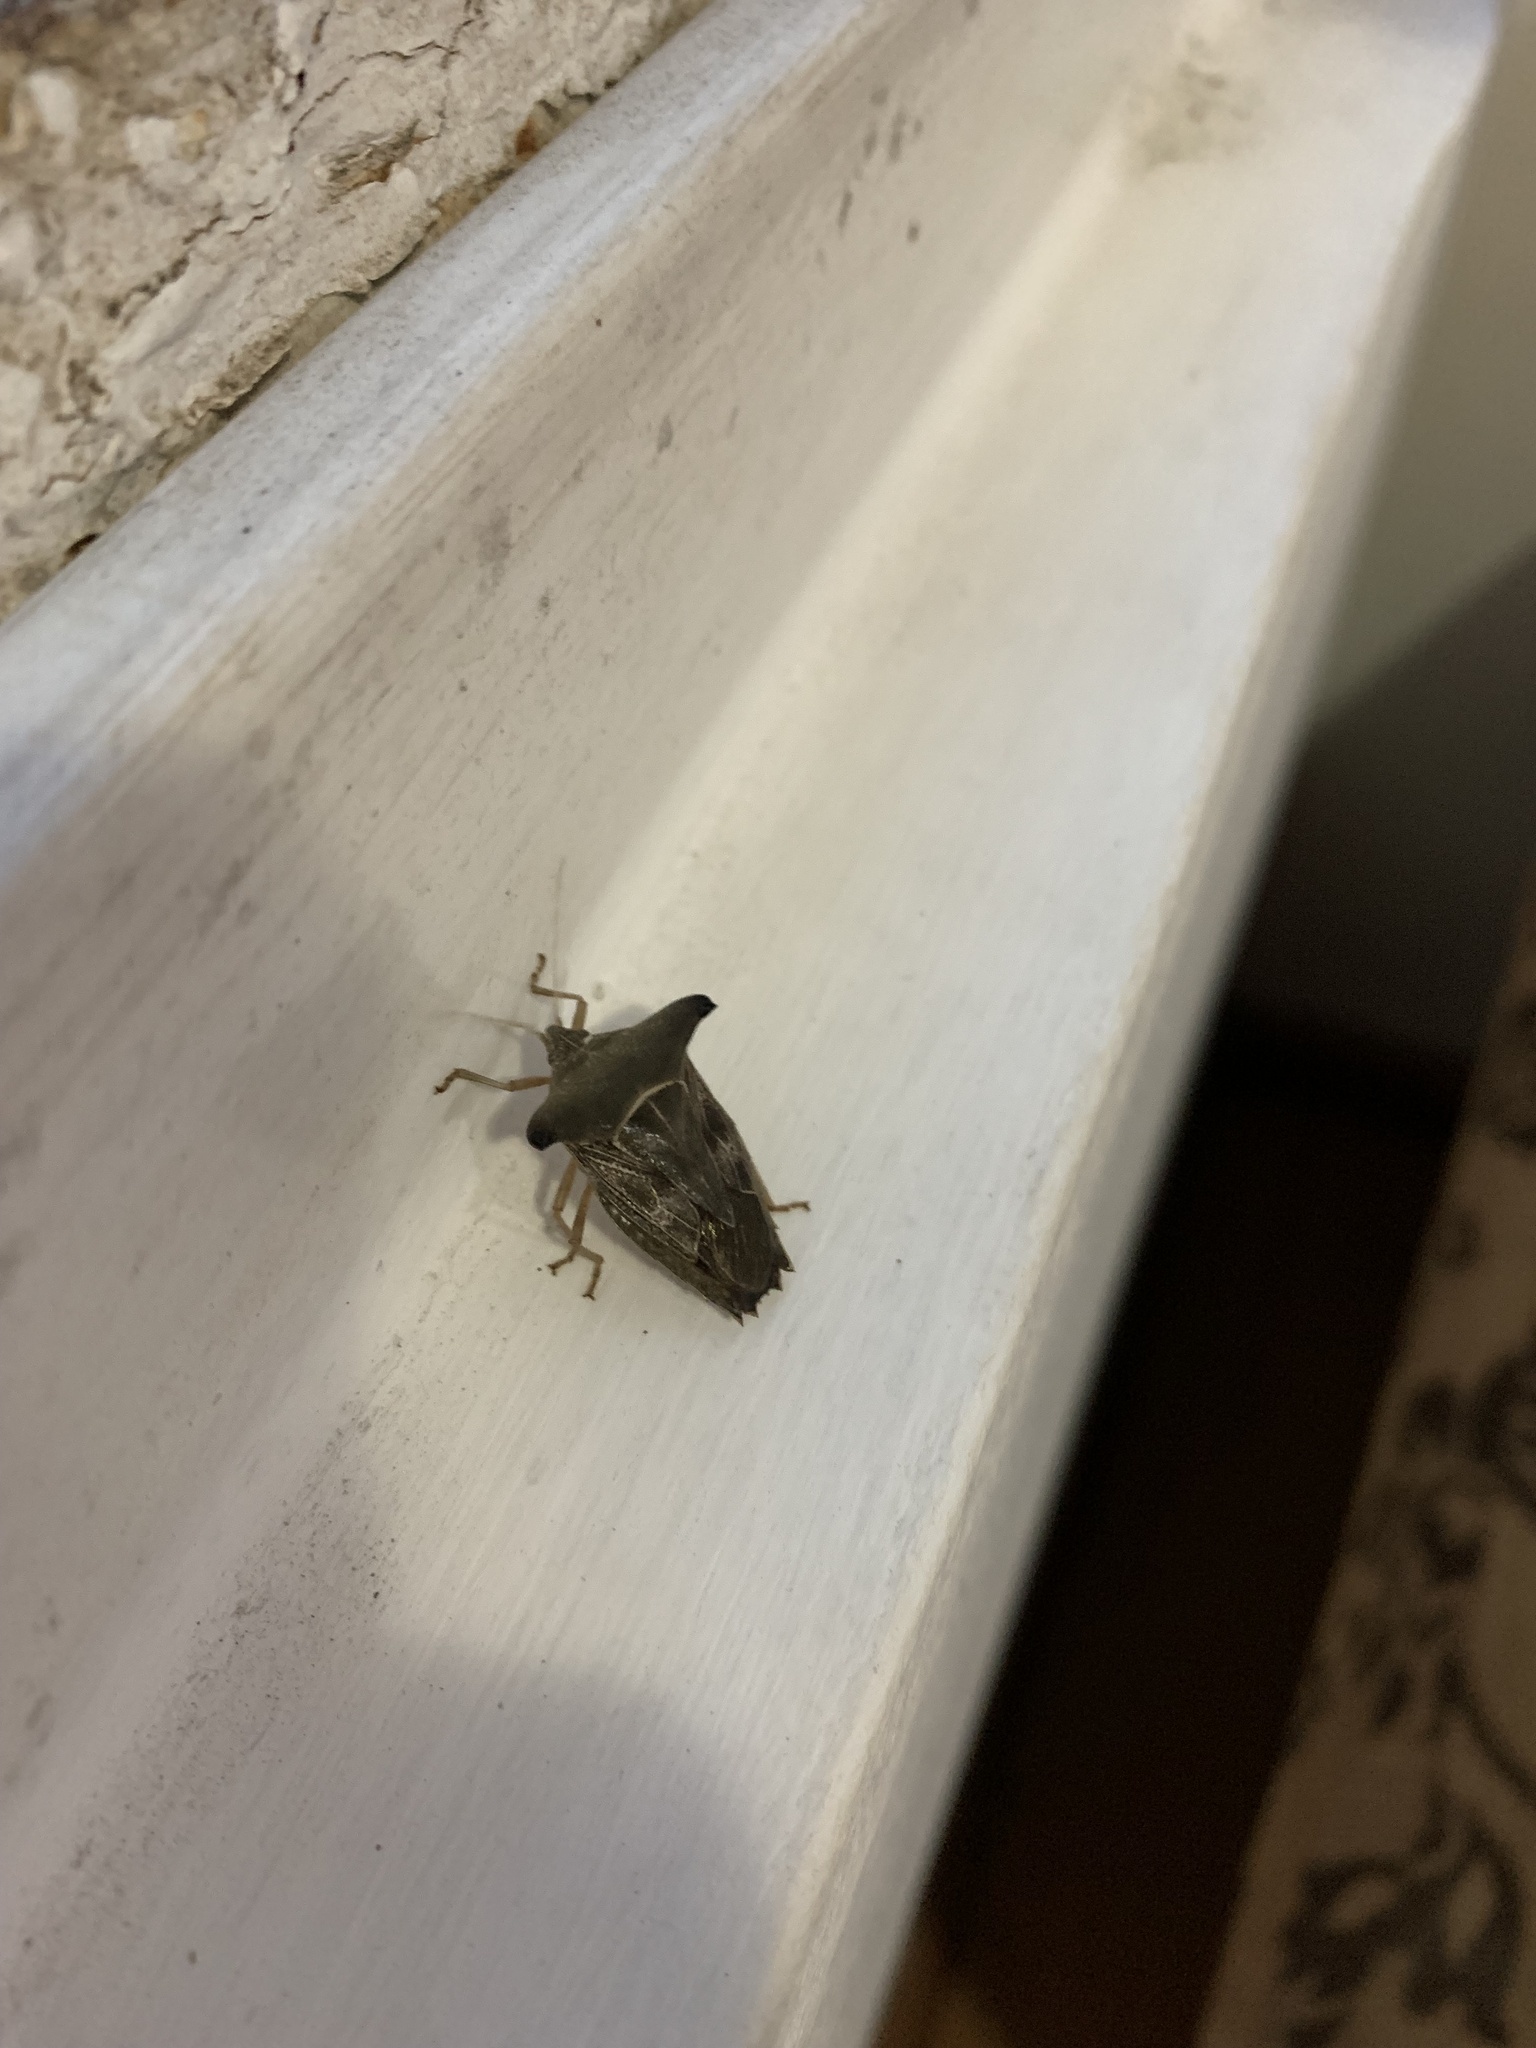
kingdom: Animalia
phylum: Arthropoda
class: Insecta
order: Hemiptera
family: Pentatomidae
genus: Edessa
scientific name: Edessa
